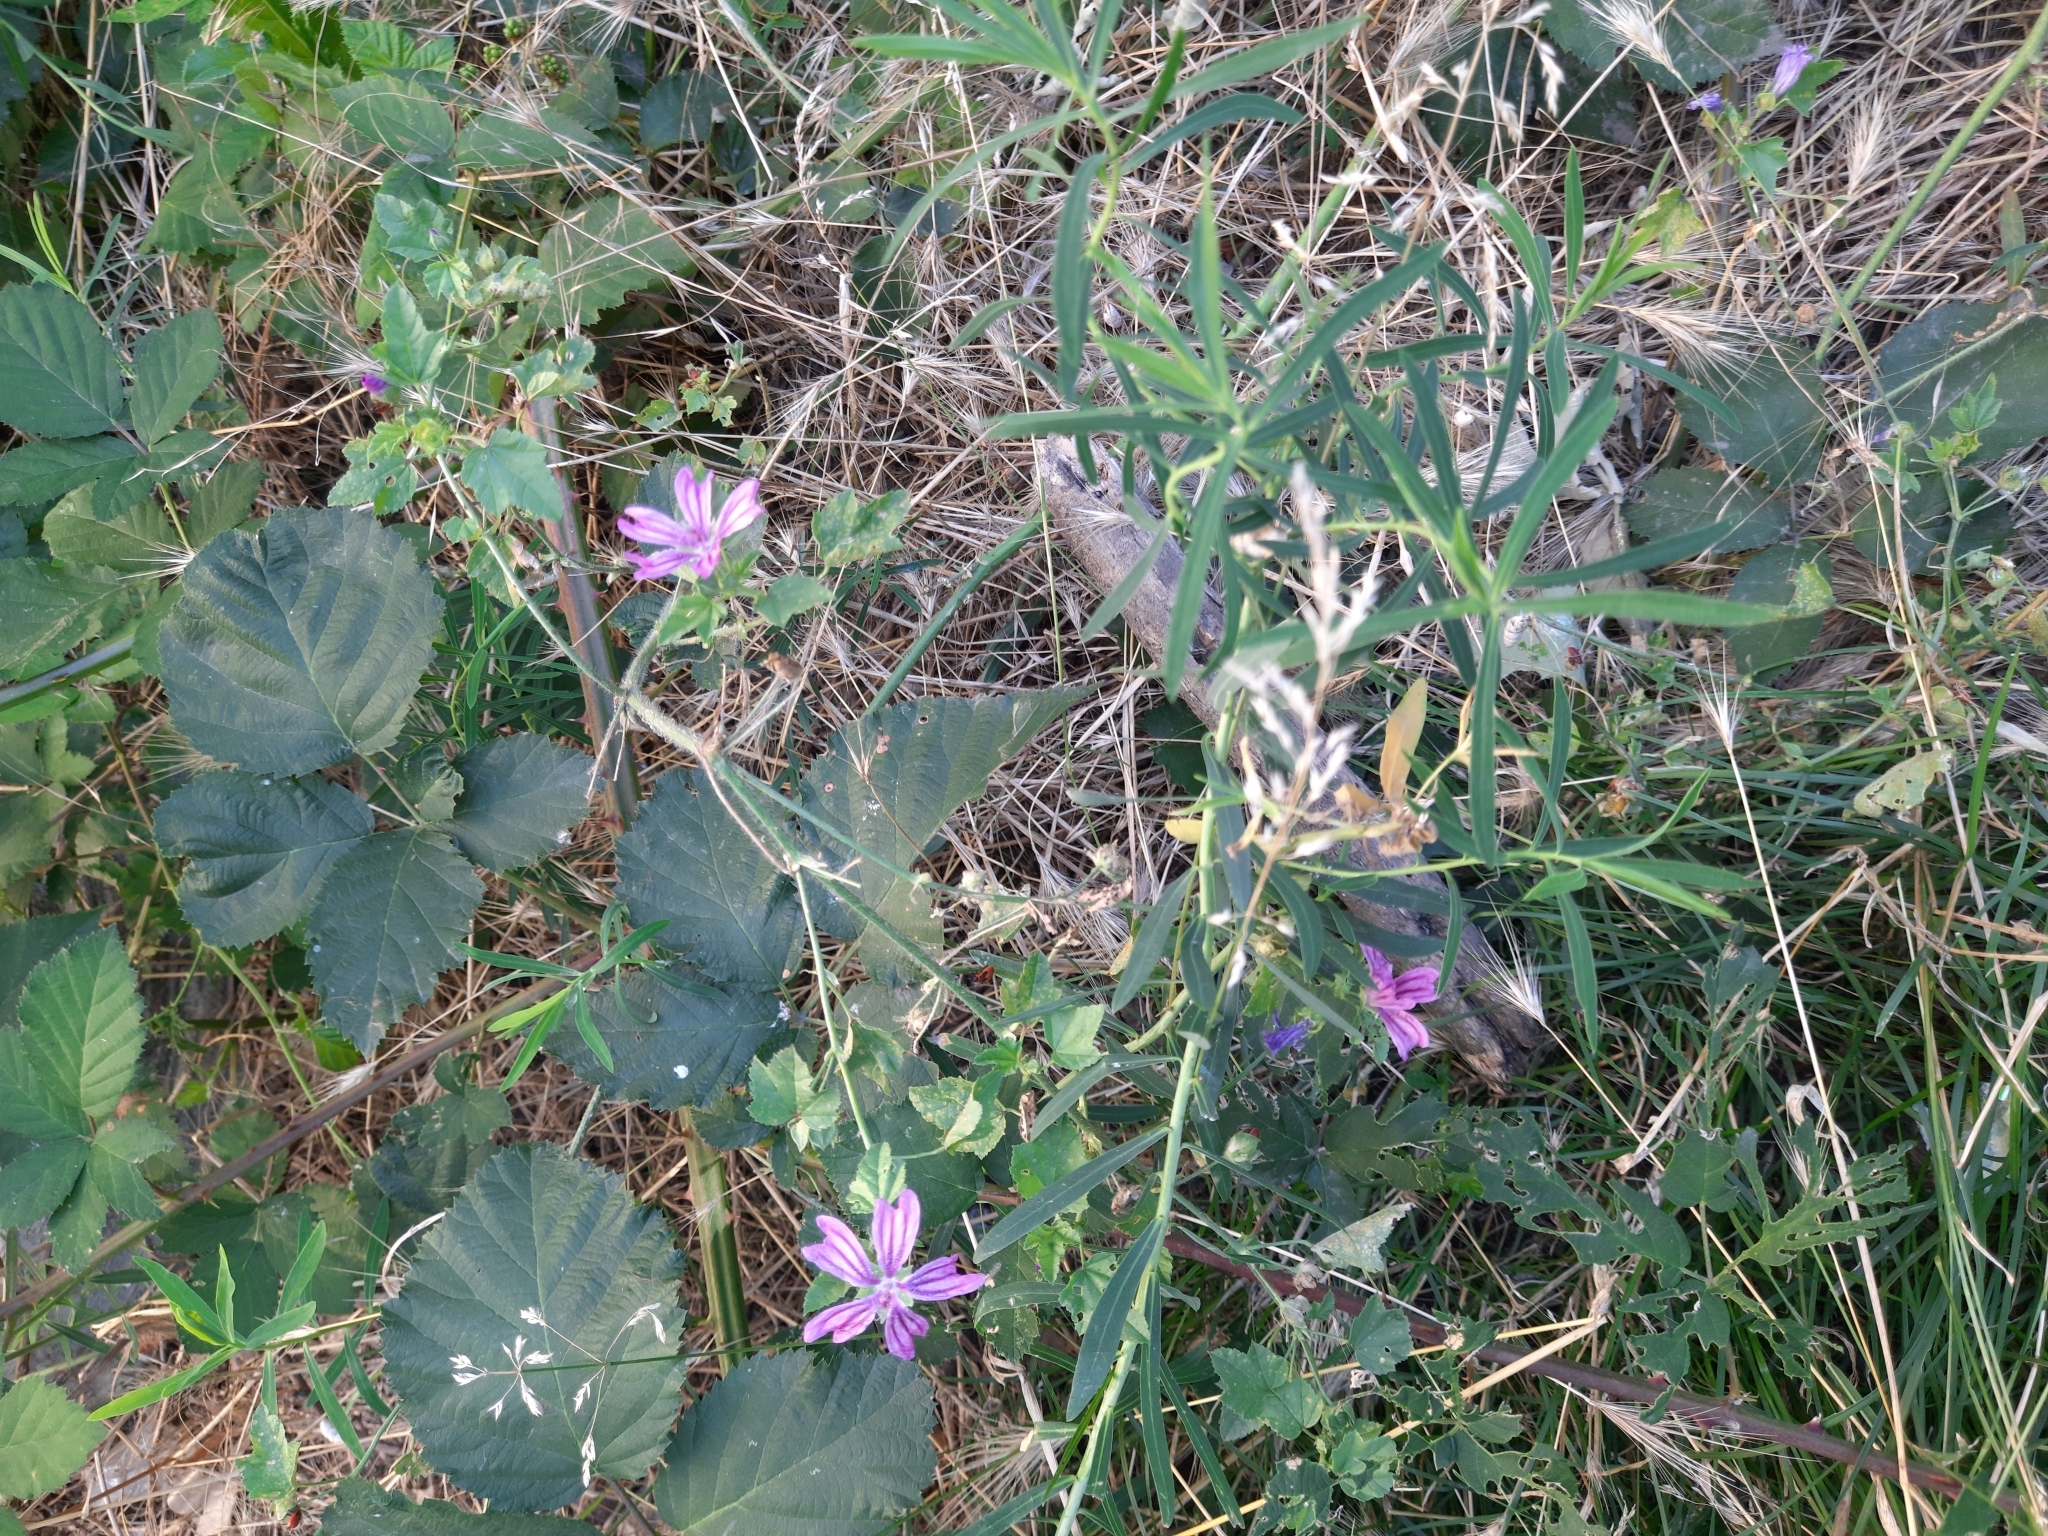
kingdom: Plantae
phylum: Tracheophyta
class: Magnoliopsida
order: Malvales
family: Malvaceae
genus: Malva
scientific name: Malva sylvestris
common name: Common mallow
